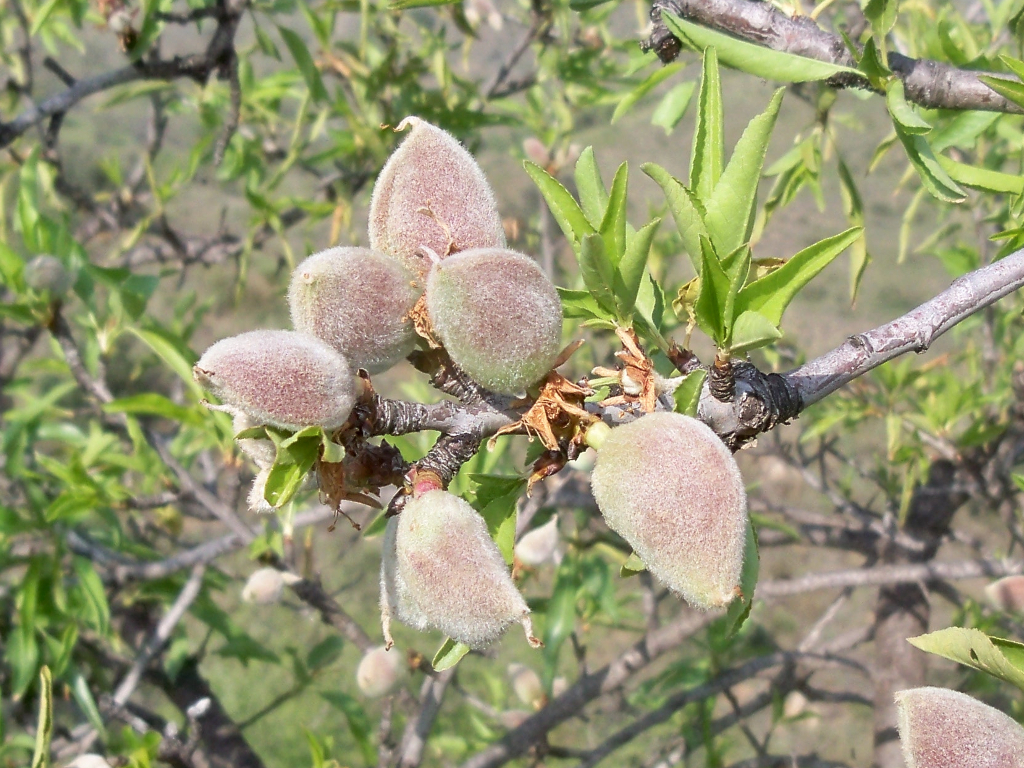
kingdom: Plantae
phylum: Tracheophyta
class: Magnoliopsida
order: Rosales
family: Rosaceae
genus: Prunus
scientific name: Prunus amygdalus
